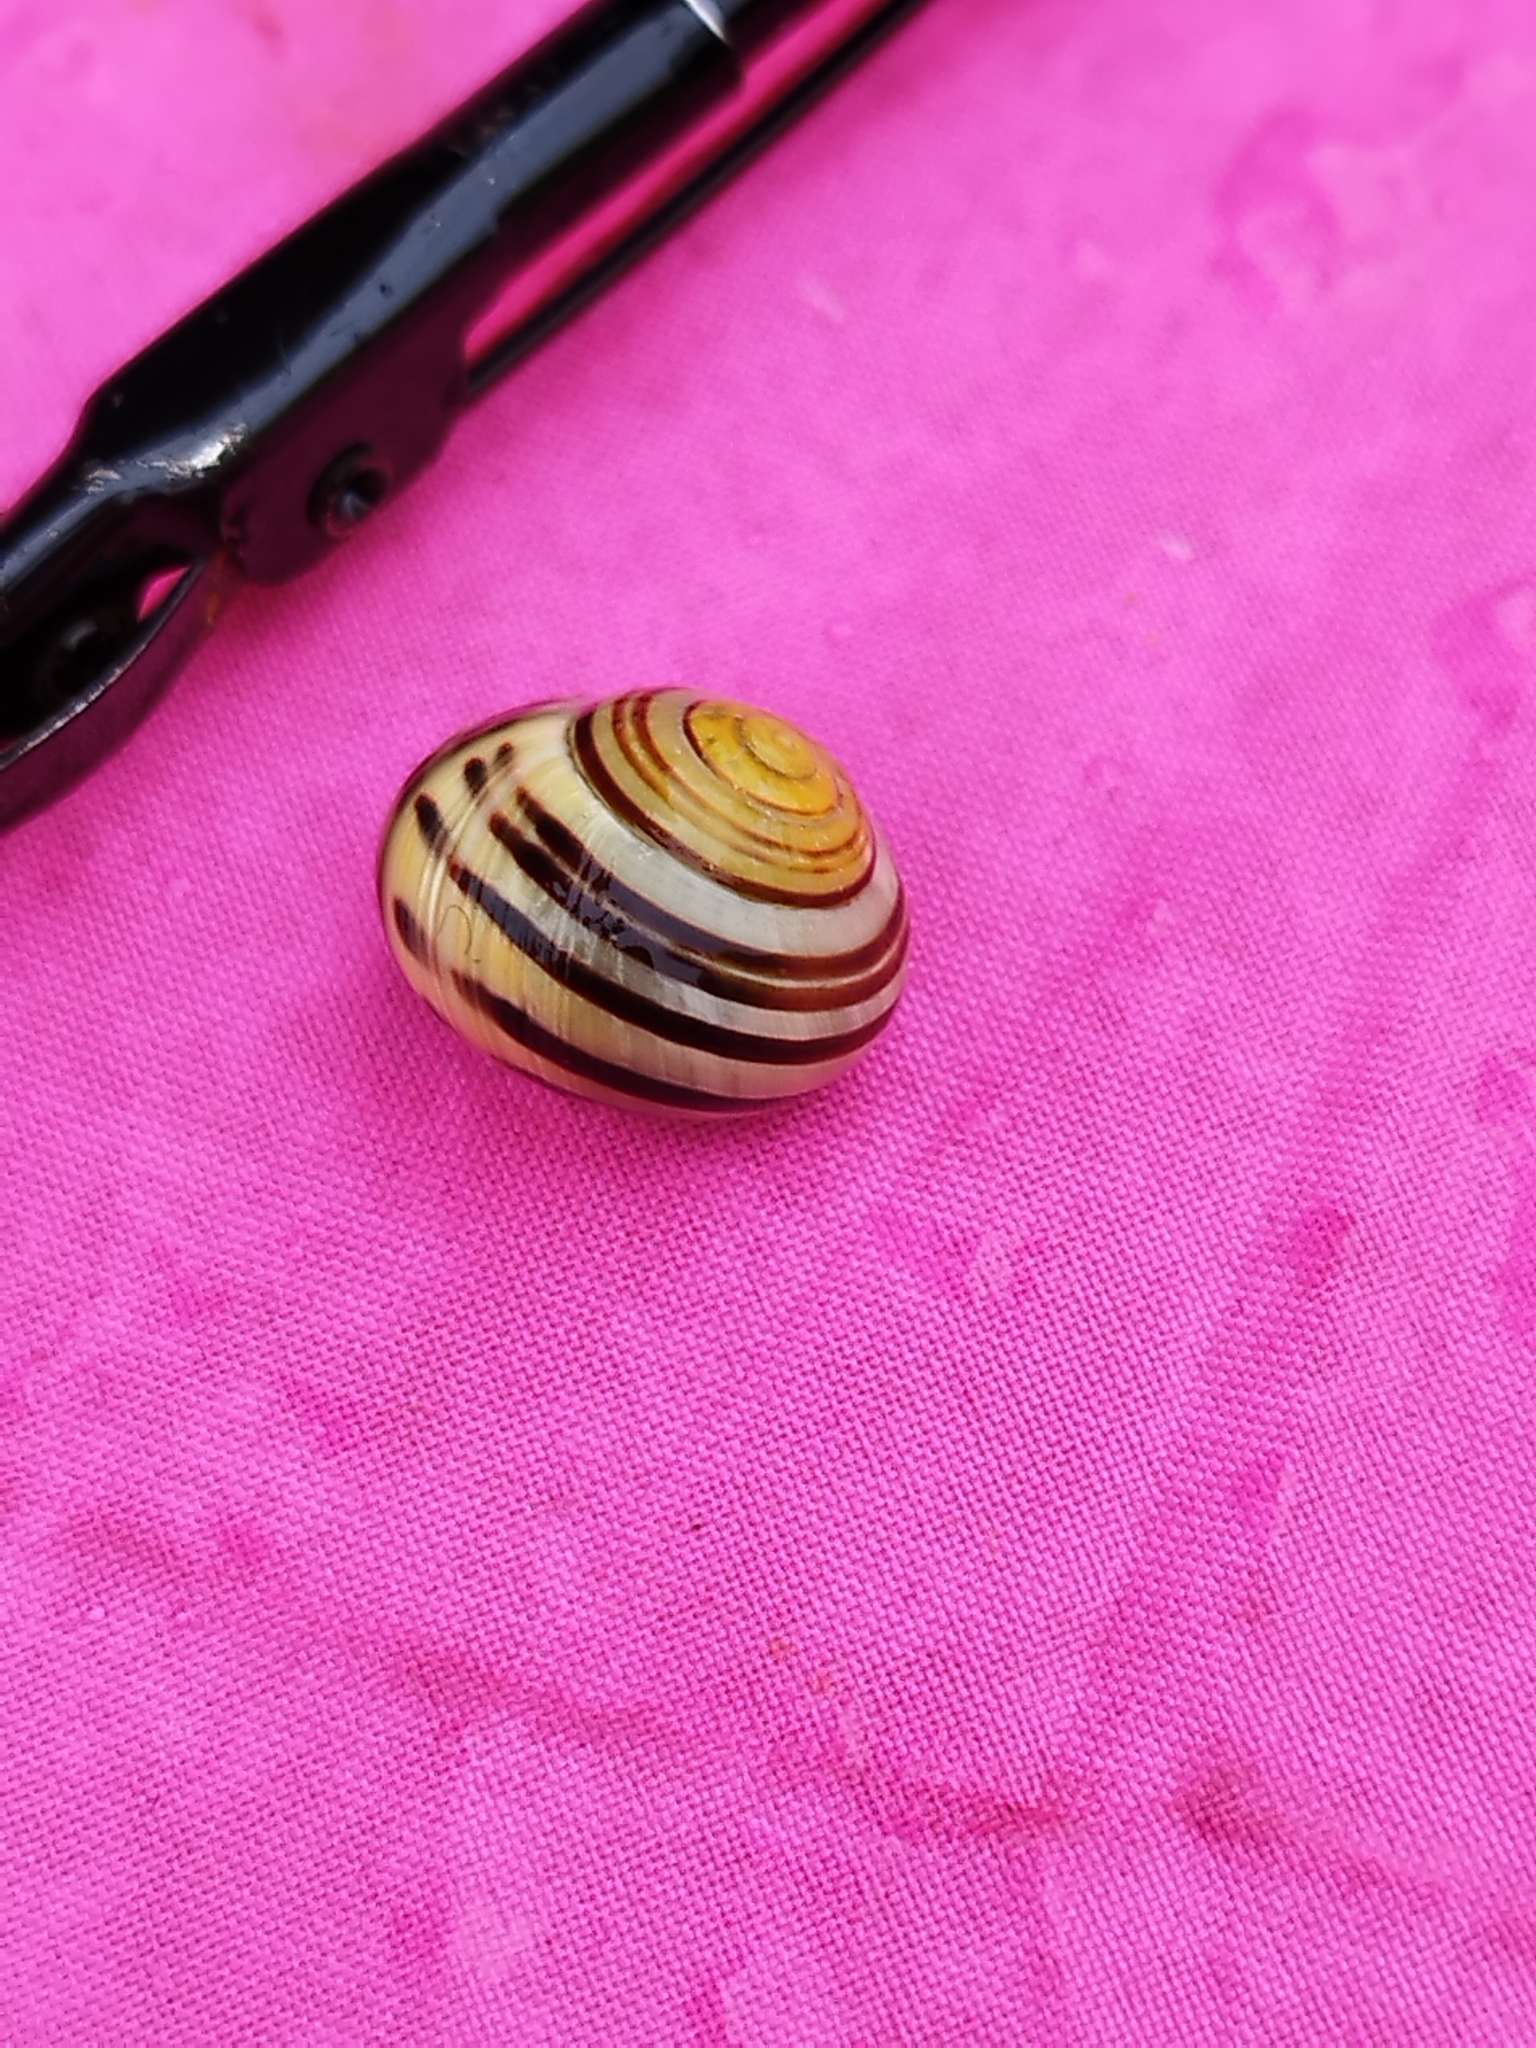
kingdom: Animalia
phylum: Mollusca
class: Gastropoda
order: Stylommatophora
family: Helicidae
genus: Cepaea
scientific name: Cepaea nemoralis
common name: Grovesnail
